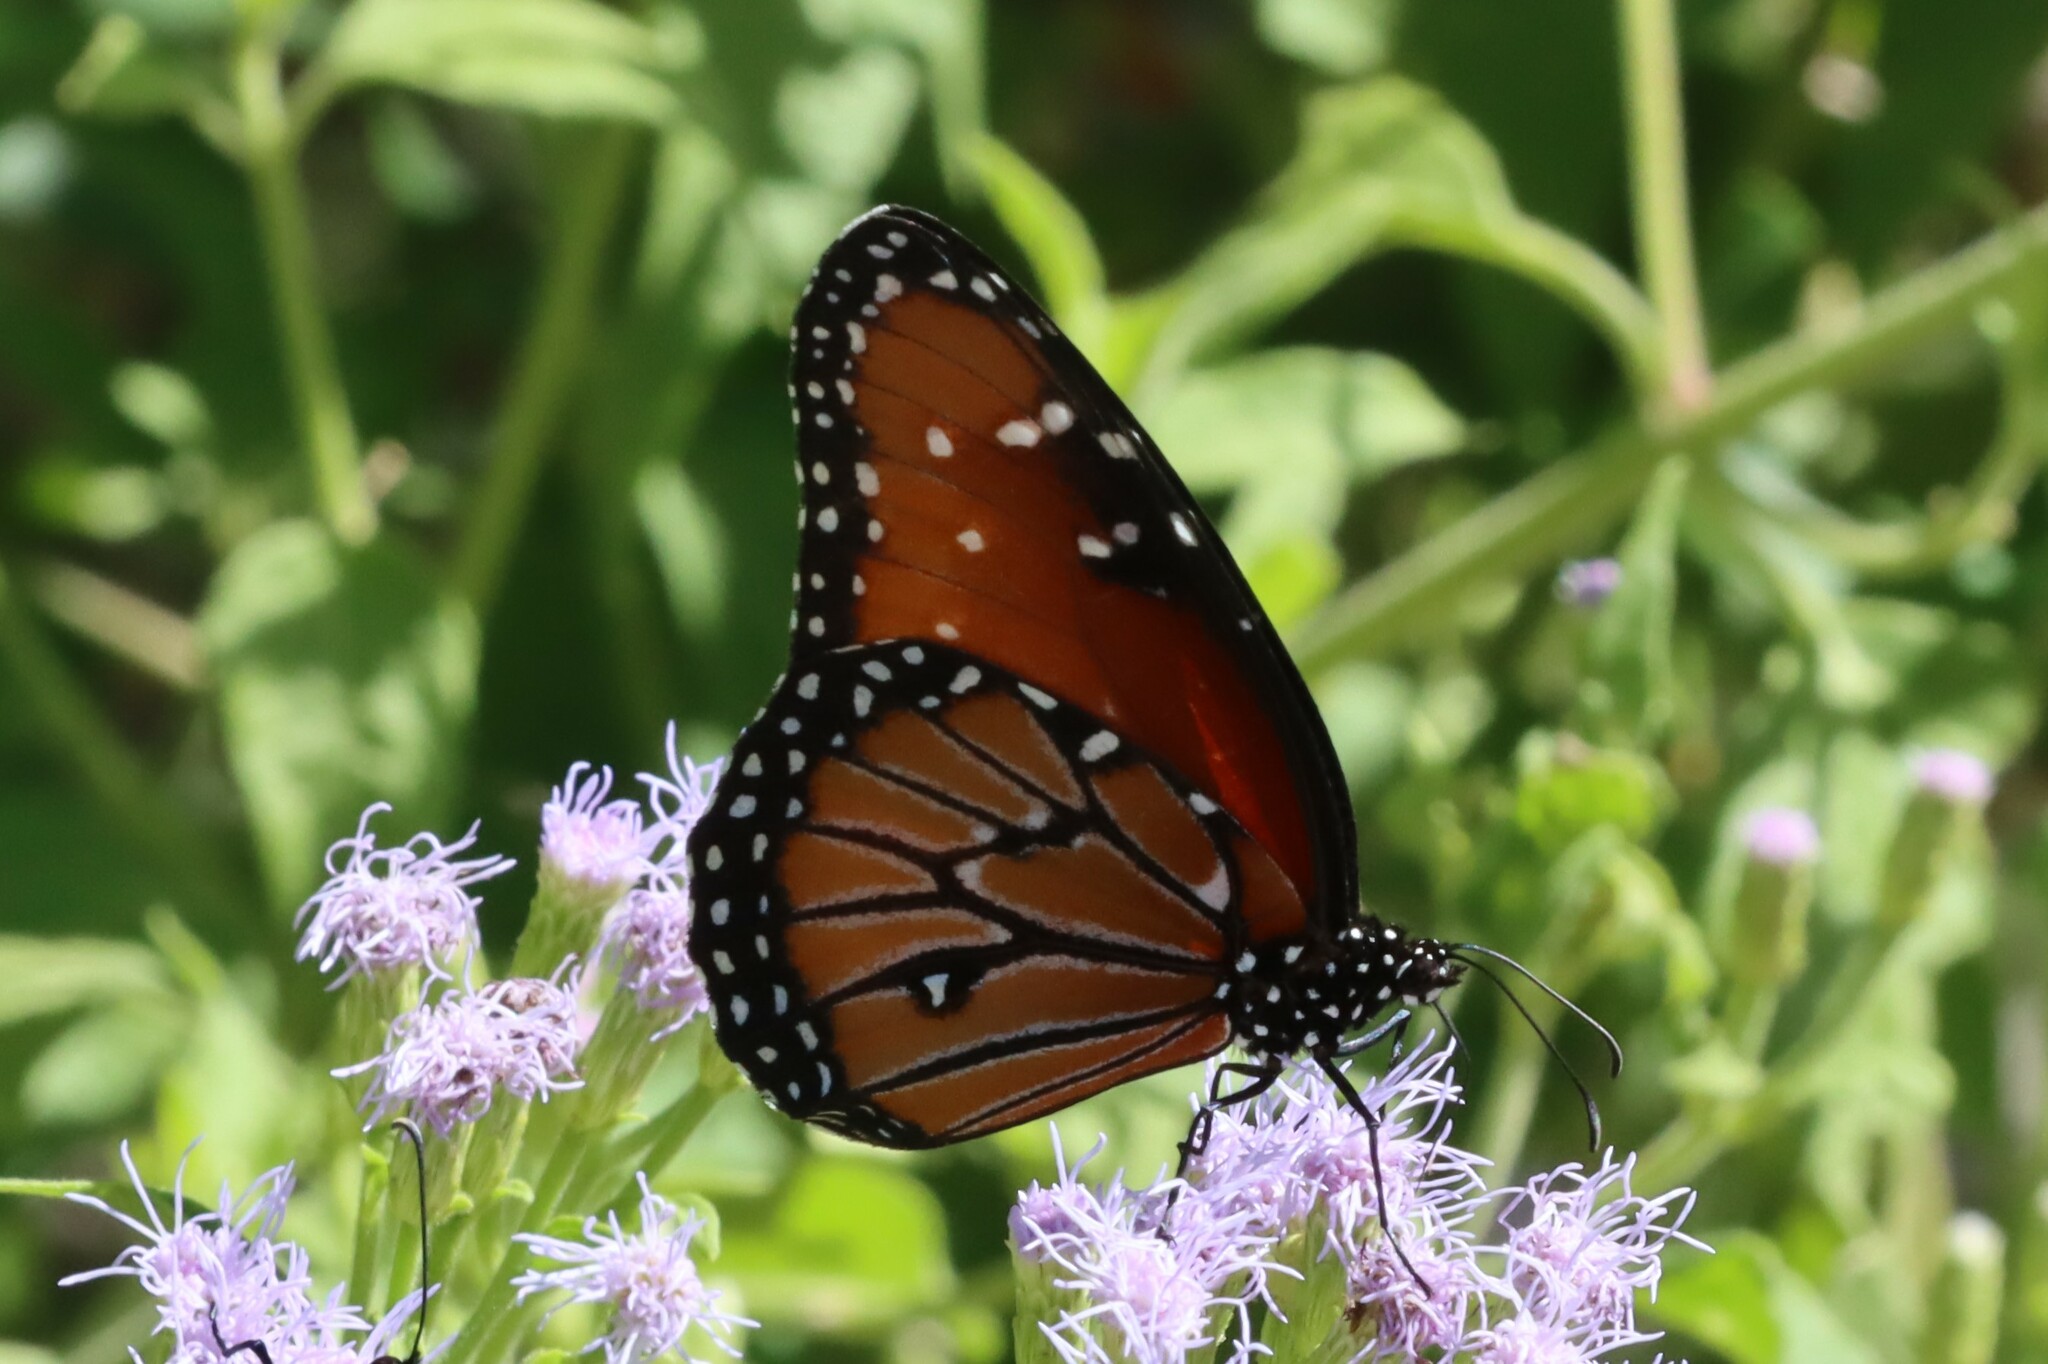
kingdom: Animalia
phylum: Arthropoda
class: Insecta
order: Lepidoptera
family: Nymphalidae
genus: Danaus
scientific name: Danaus gilippus
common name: Queen
